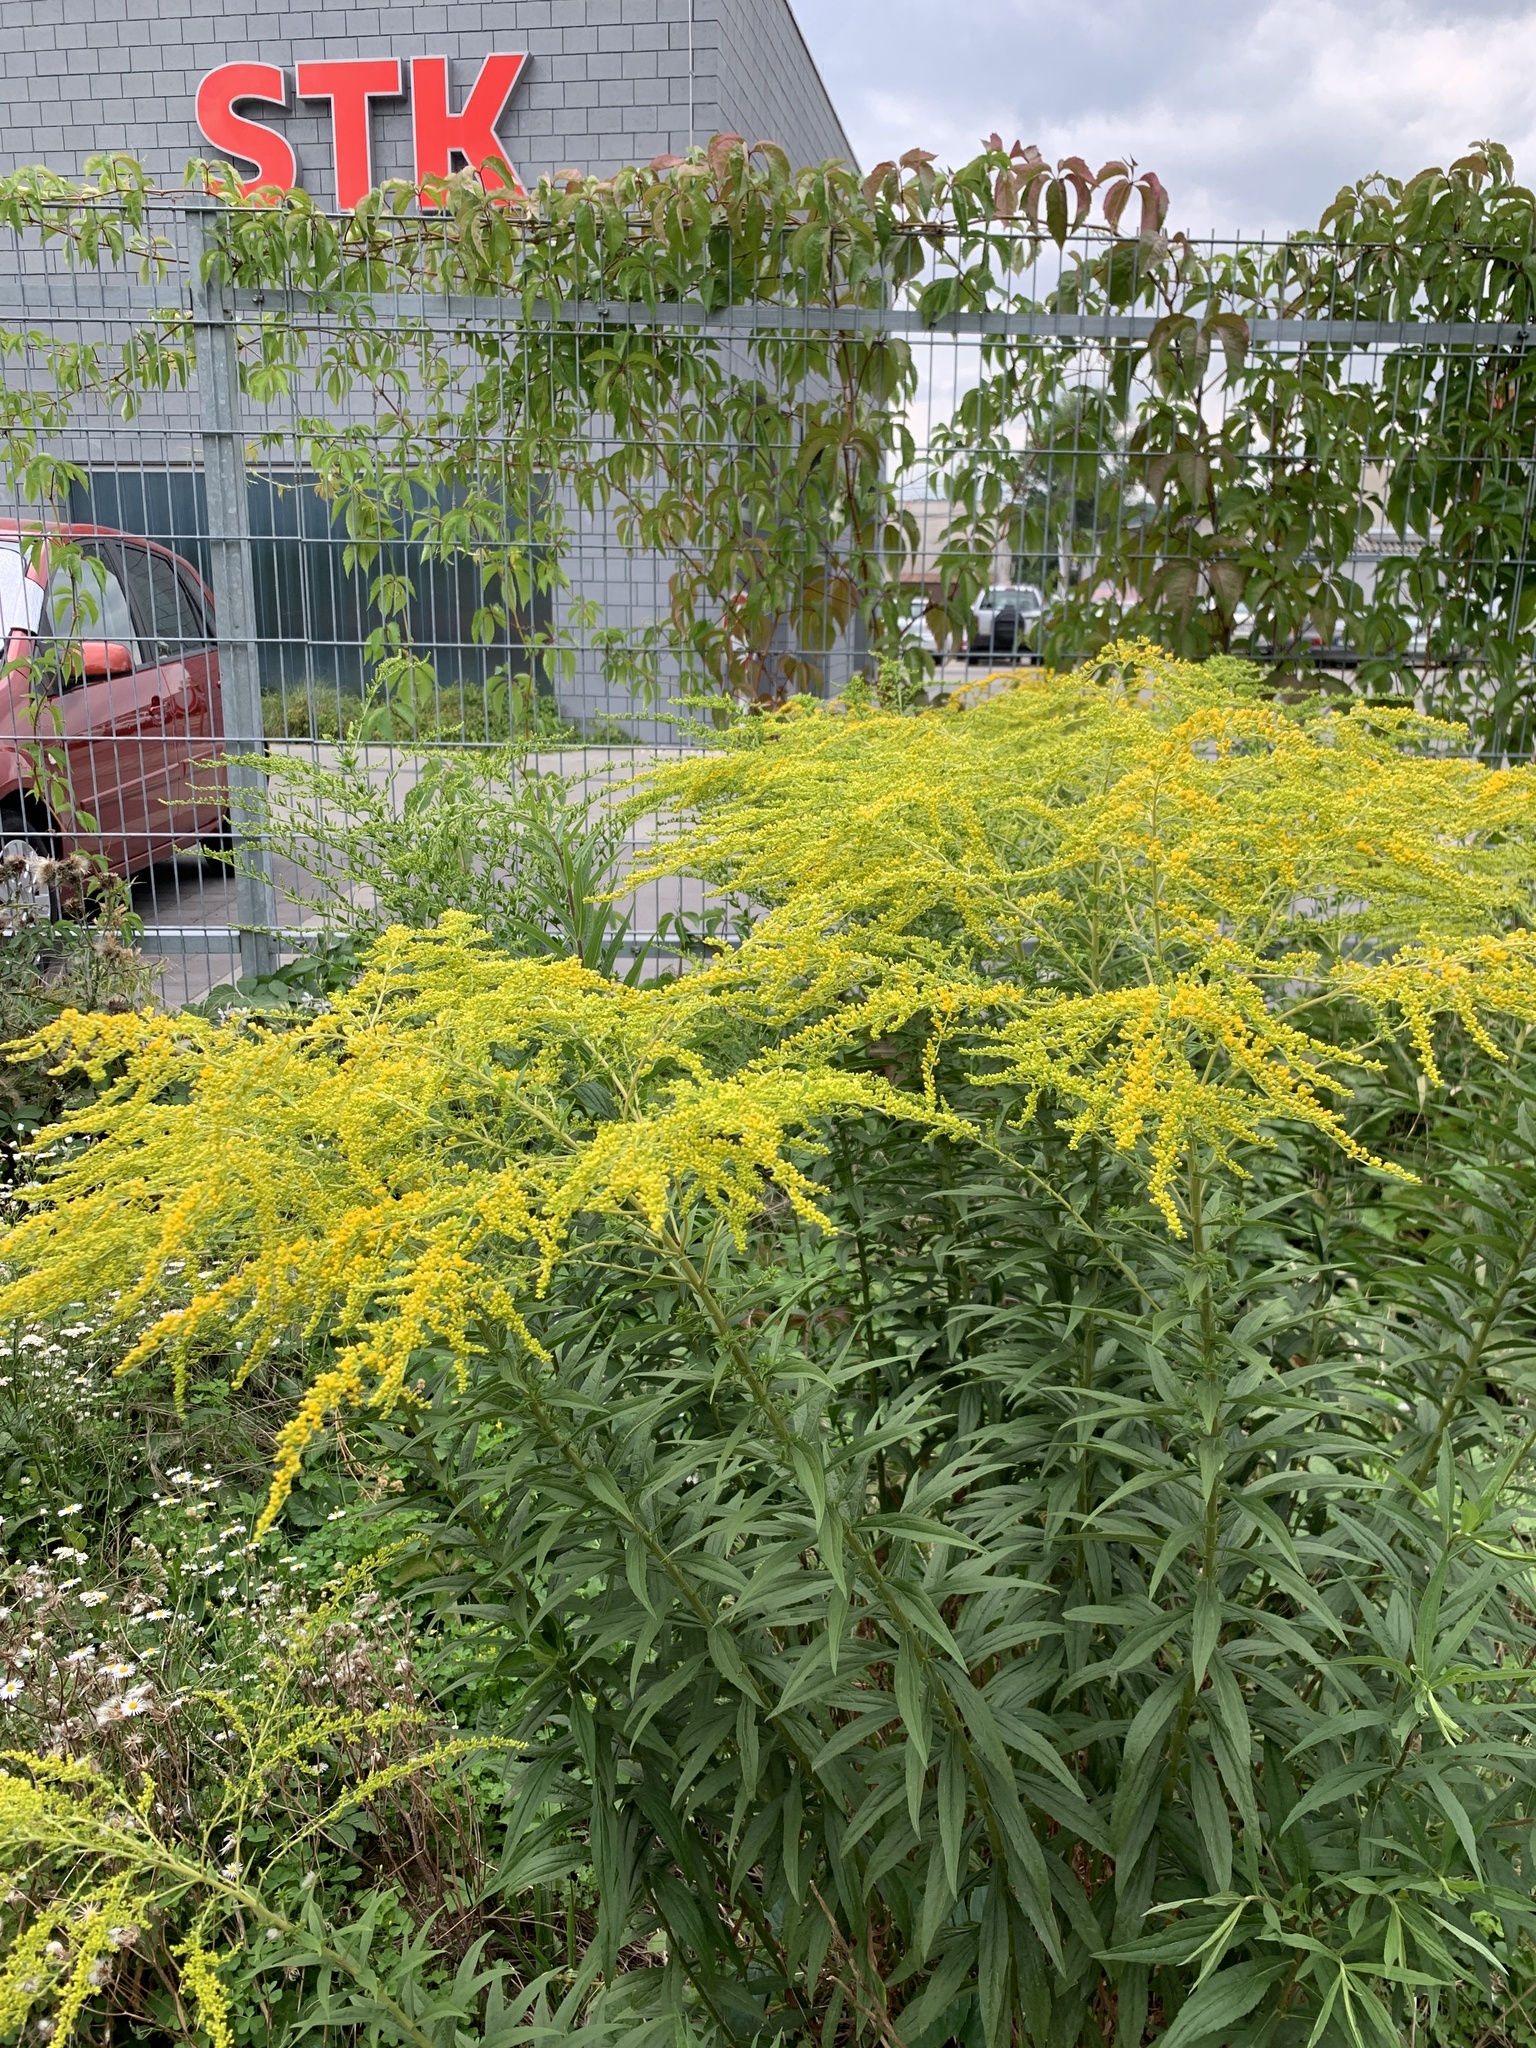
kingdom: Plantae
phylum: Tracheophyta
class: Magnoliopsida
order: Asterales
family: Asteraceae
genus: Solidago
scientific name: Solidago canadensis
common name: Canada goldenrod
